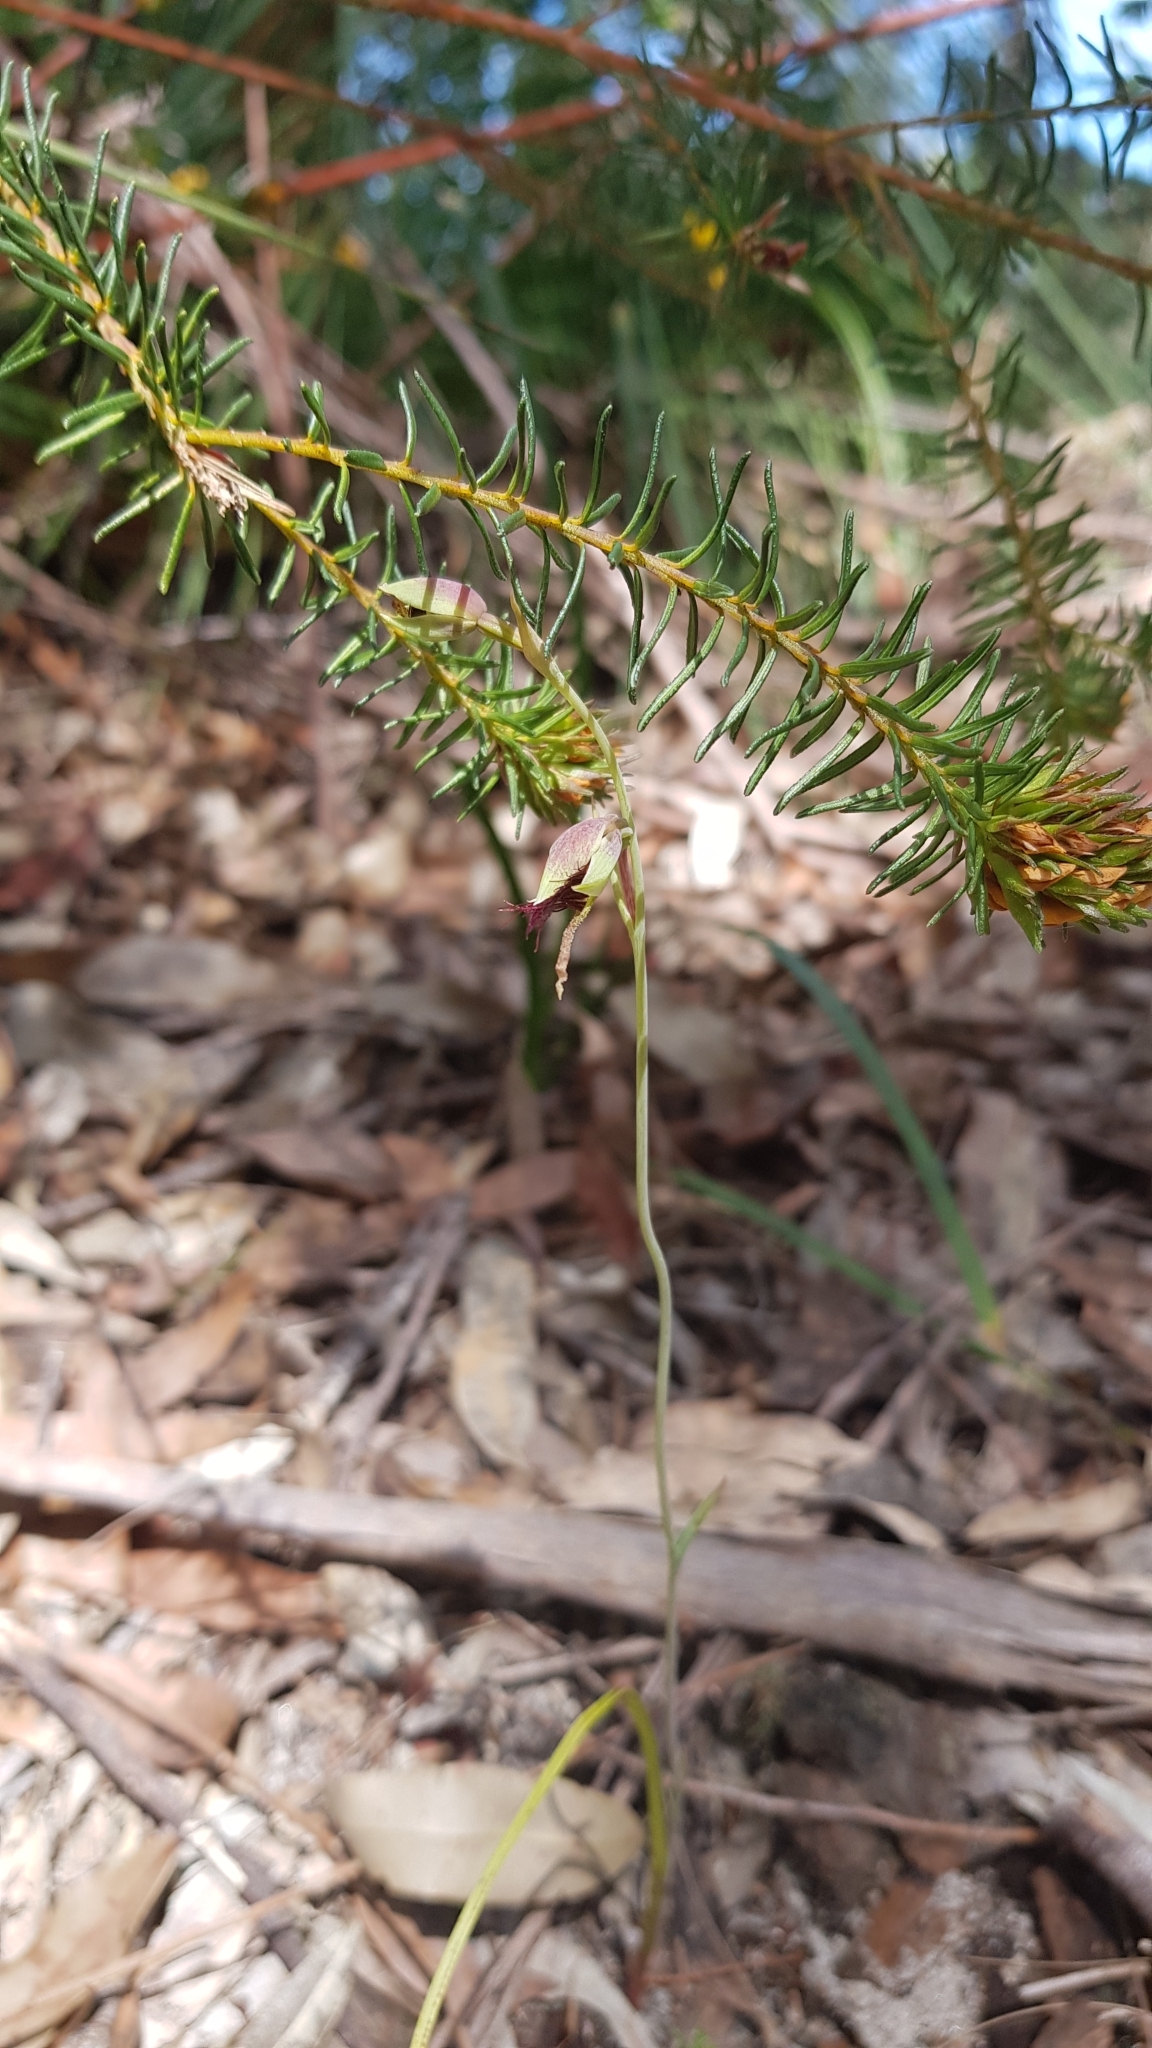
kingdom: Plantae
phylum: Tracheophyta
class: Liliopsida
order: Asparagales
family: Orchidaceae
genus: Calochilus
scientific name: Calochilus paludosus
